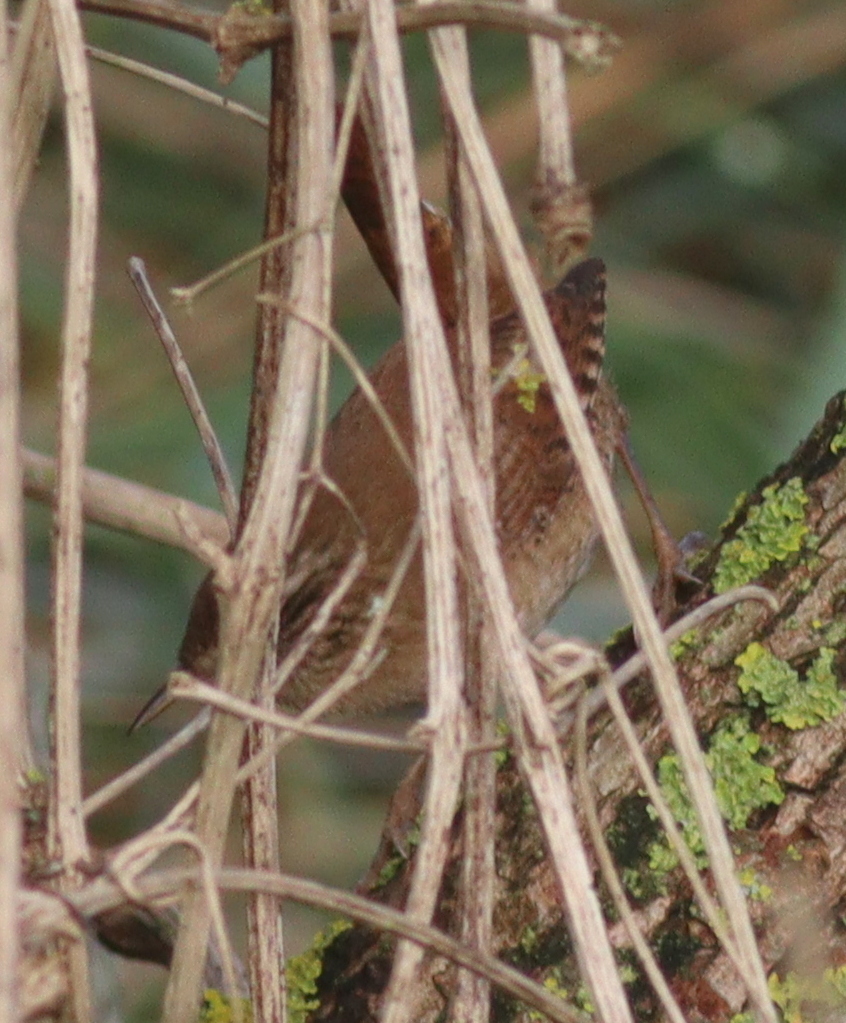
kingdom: Animalia
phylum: Chordata
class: Aves
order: Passeriformes
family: Troglodytidae
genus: Troglodytes
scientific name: Troglodytes troglodytes
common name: Eurasian wren
